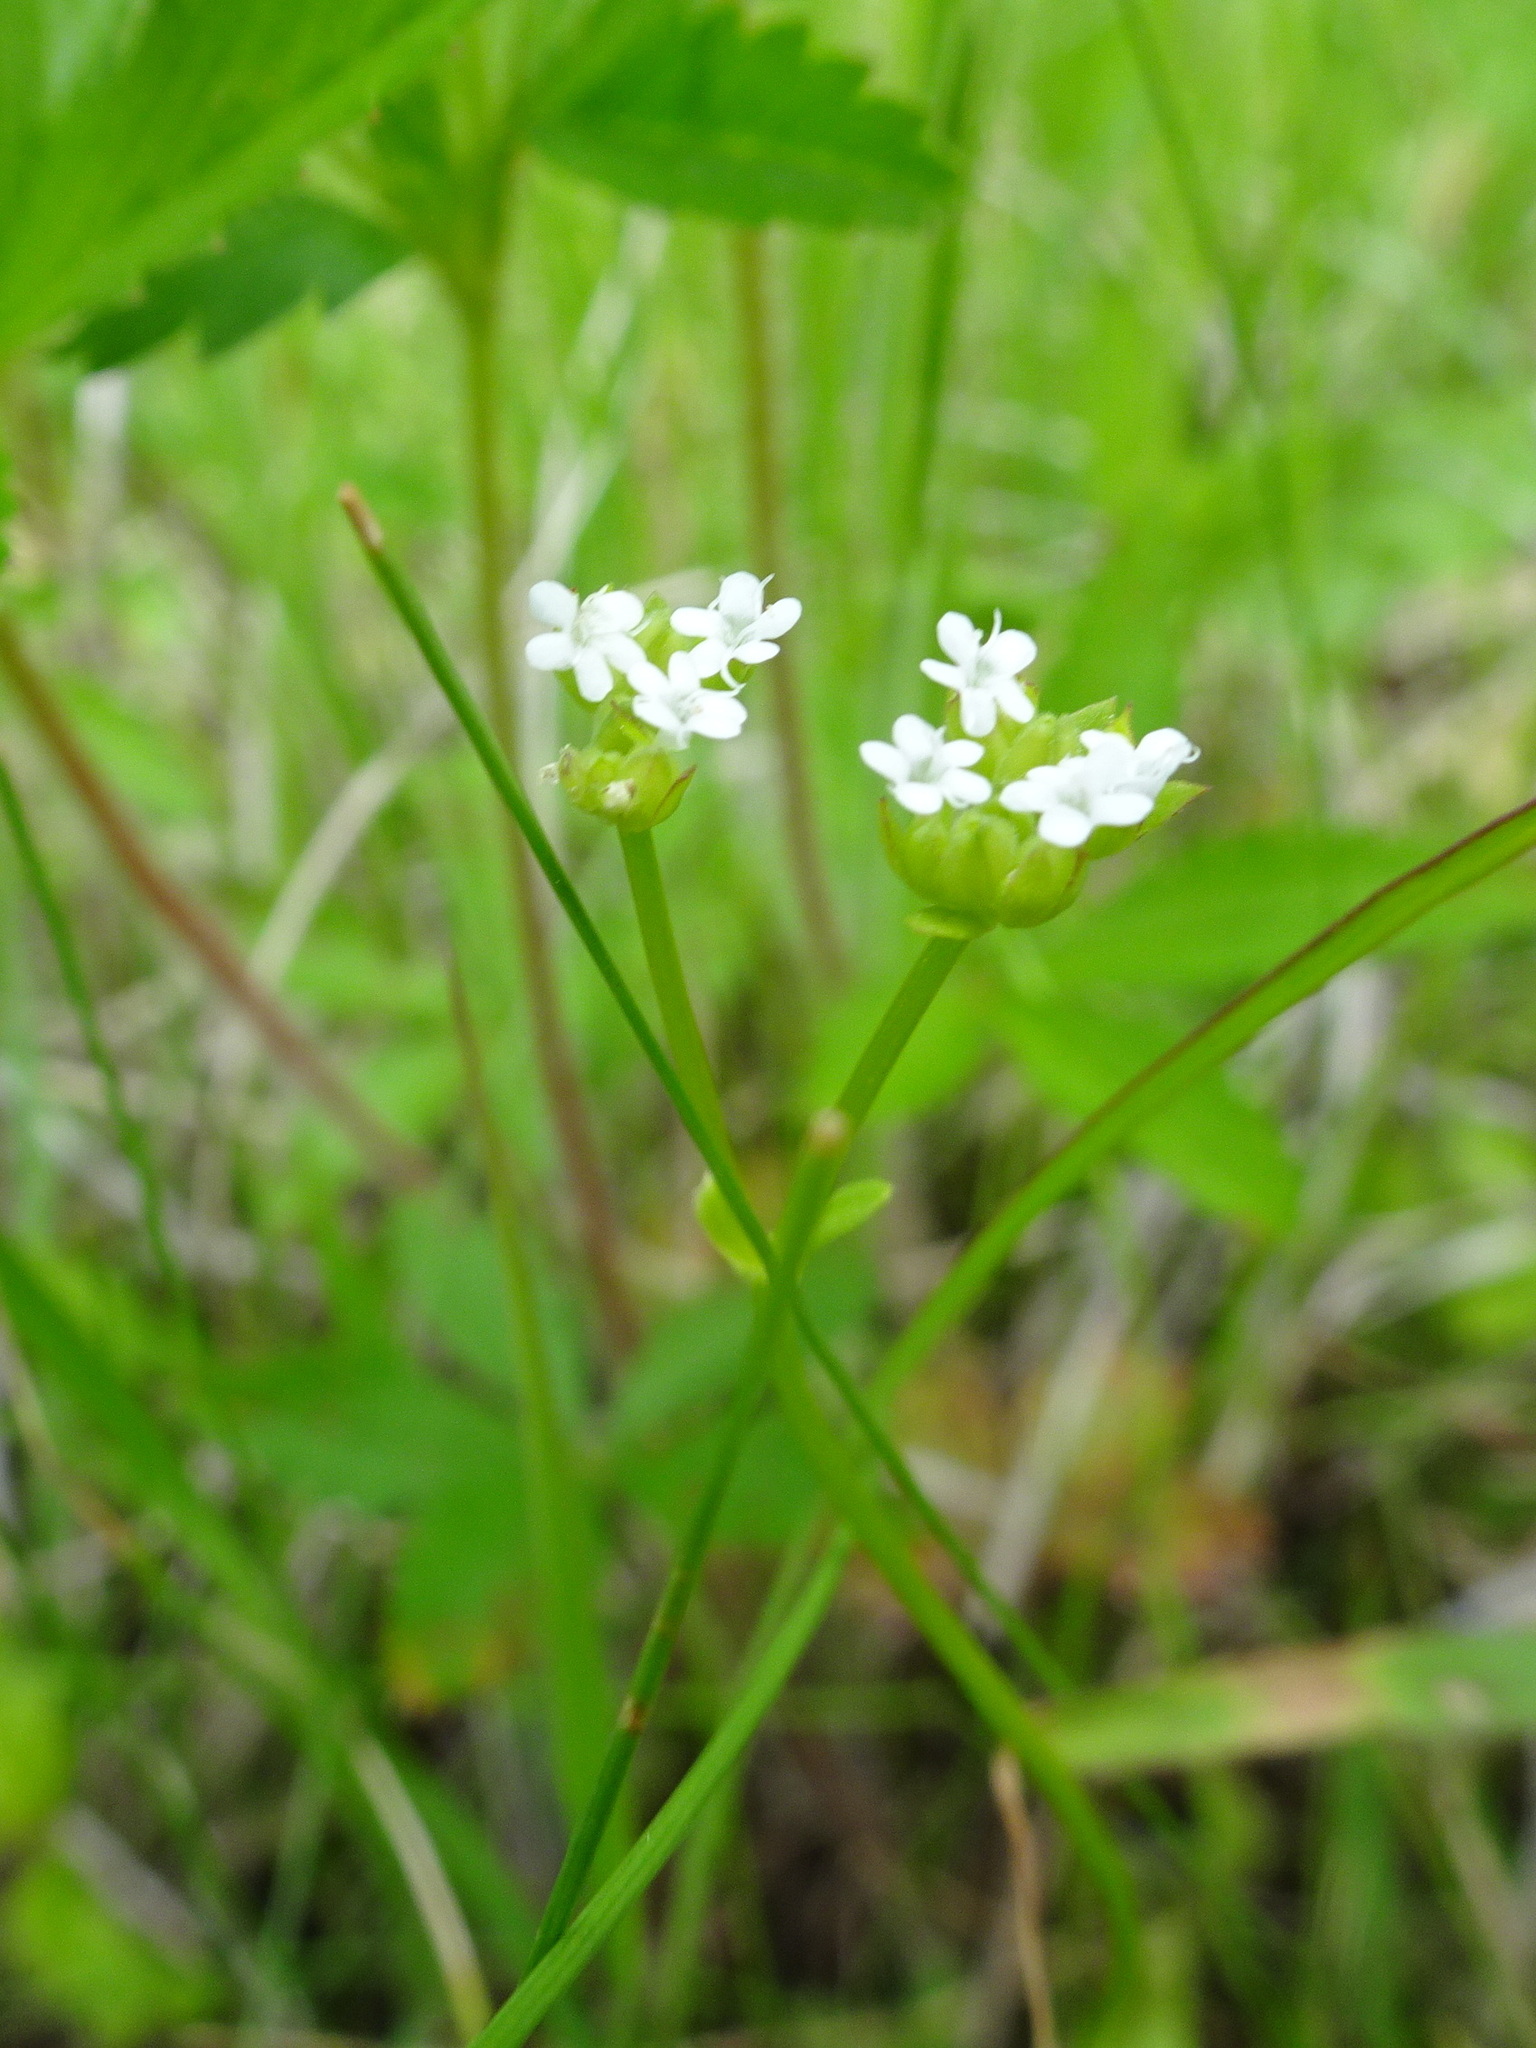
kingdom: Plantae
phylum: Tracheophyta
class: Magnoliopsida
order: Dipsacales
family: Caprifoliaceae
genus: Valerianella
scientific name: Valerianella radiata
